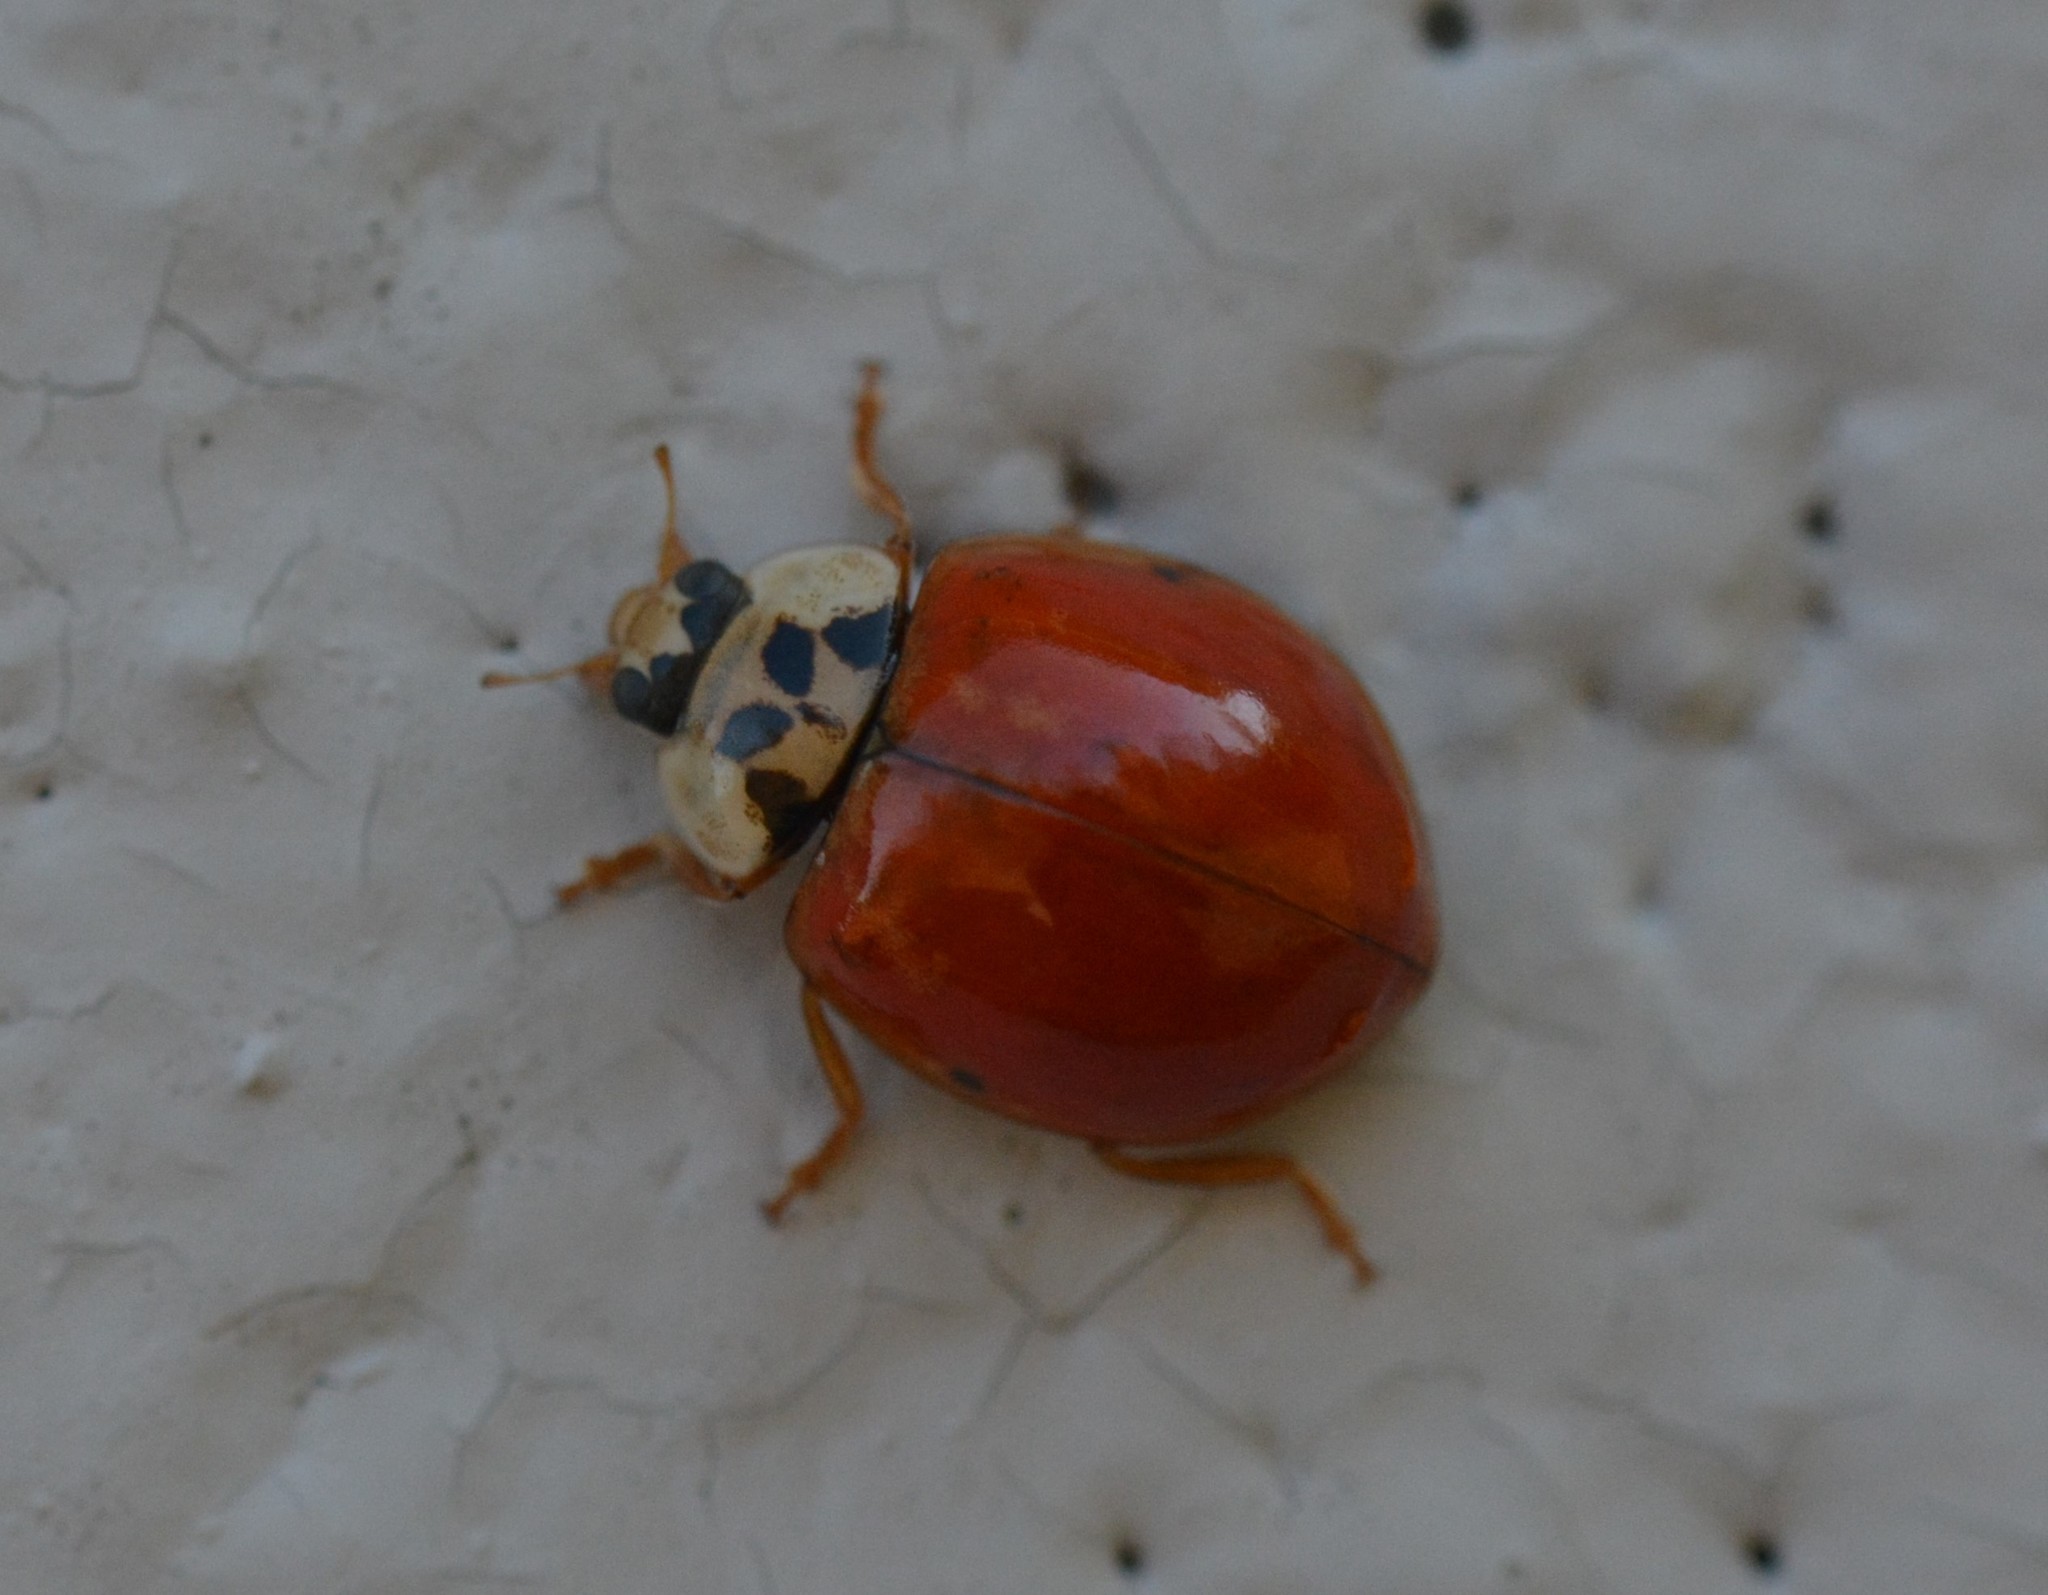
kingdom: Animalia
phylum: Arthropoda
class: Insecta
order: Coleoptera
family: Coccinellidae
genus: Harmonia
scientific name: Harmonia axyridis
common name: Harlequin ladybird
